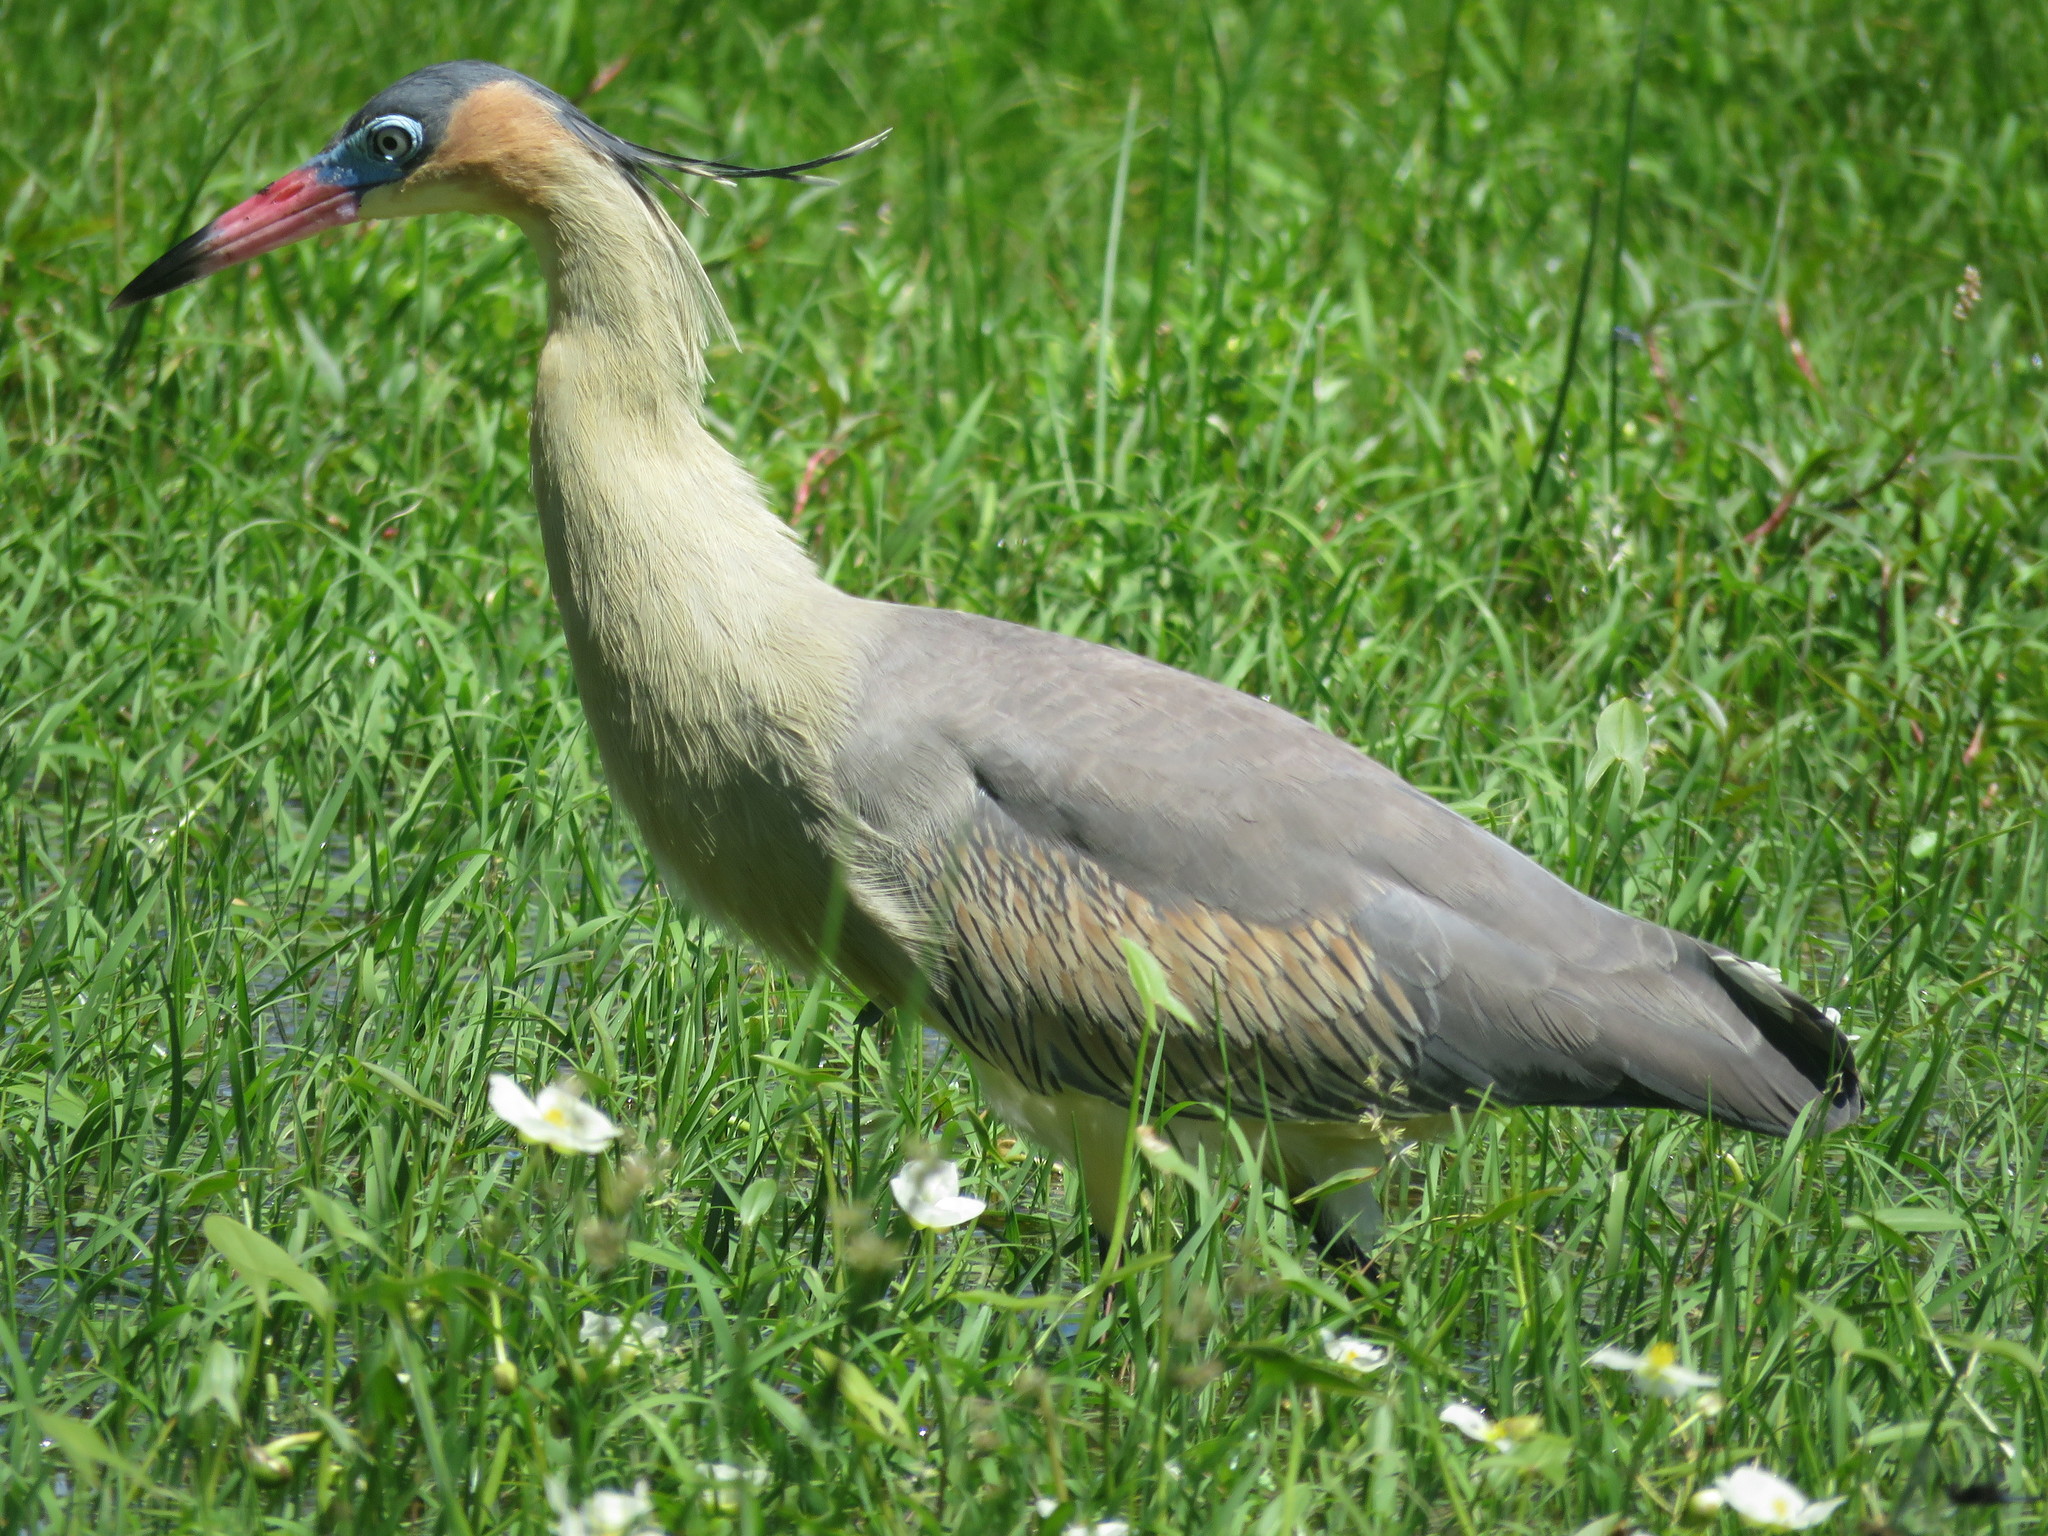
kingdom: Animalia
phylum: Chordata
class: Aves
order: Pelecaniformes
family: Ardeidae
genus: Syrigma
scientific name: Syrigma sibilatrix
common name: Whistling heron
